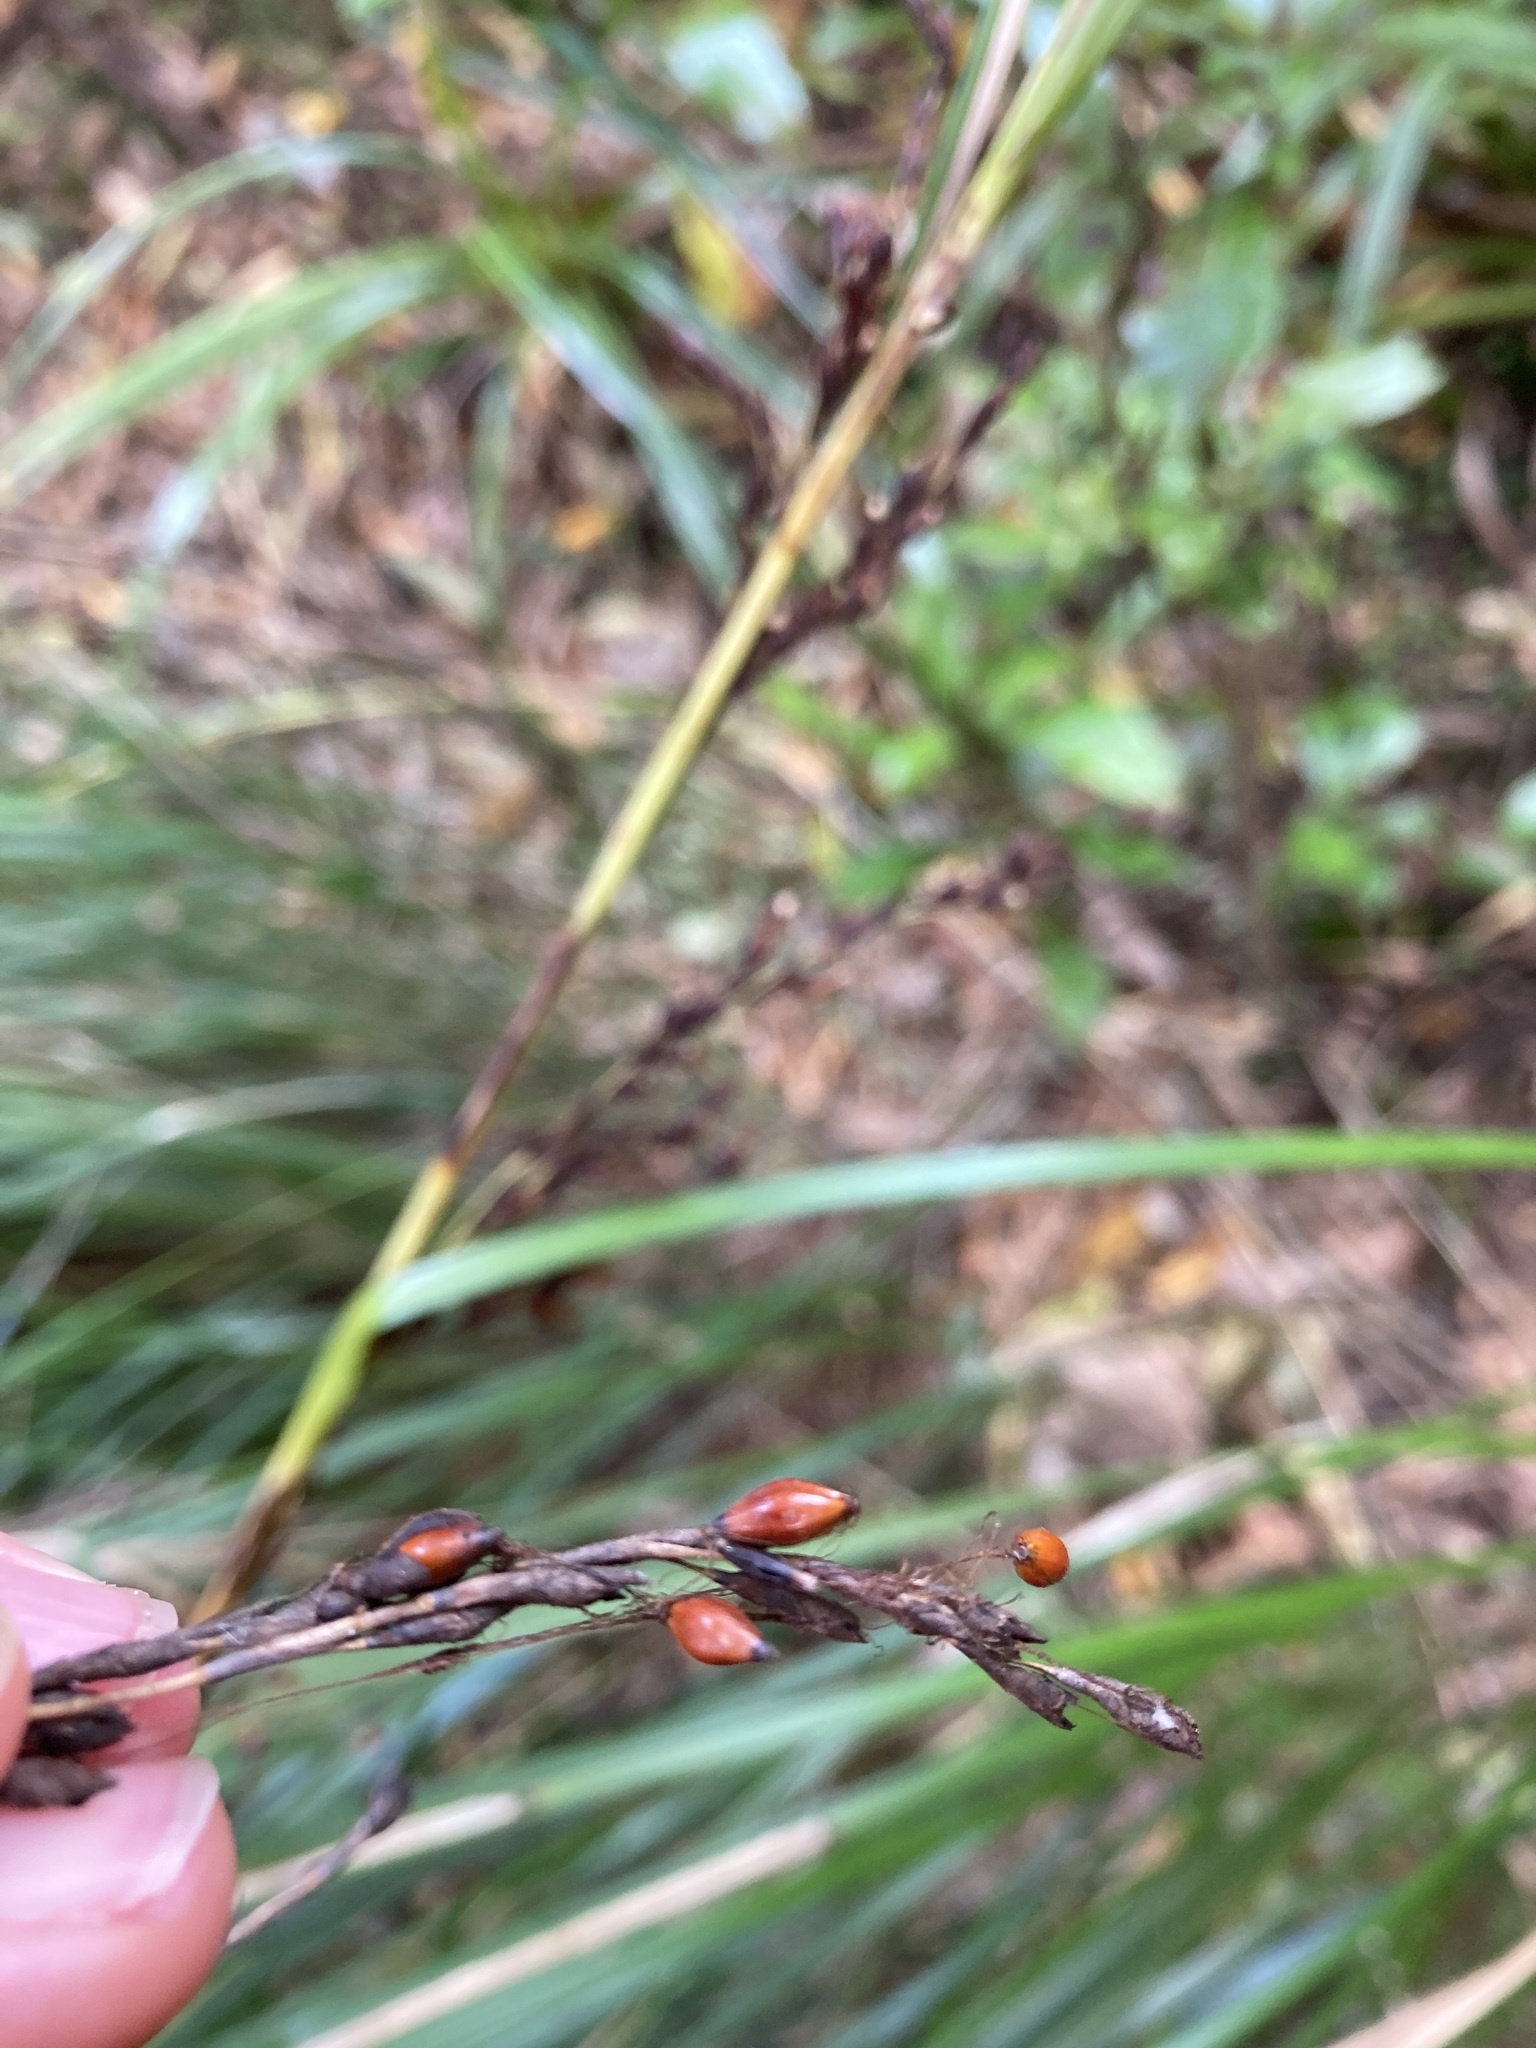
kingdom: Plantae
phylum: Tracheophyta
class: Liliopsida
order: Poales
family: Cyperaceae
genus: Gahnia
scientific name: Gahnia pauciflora
